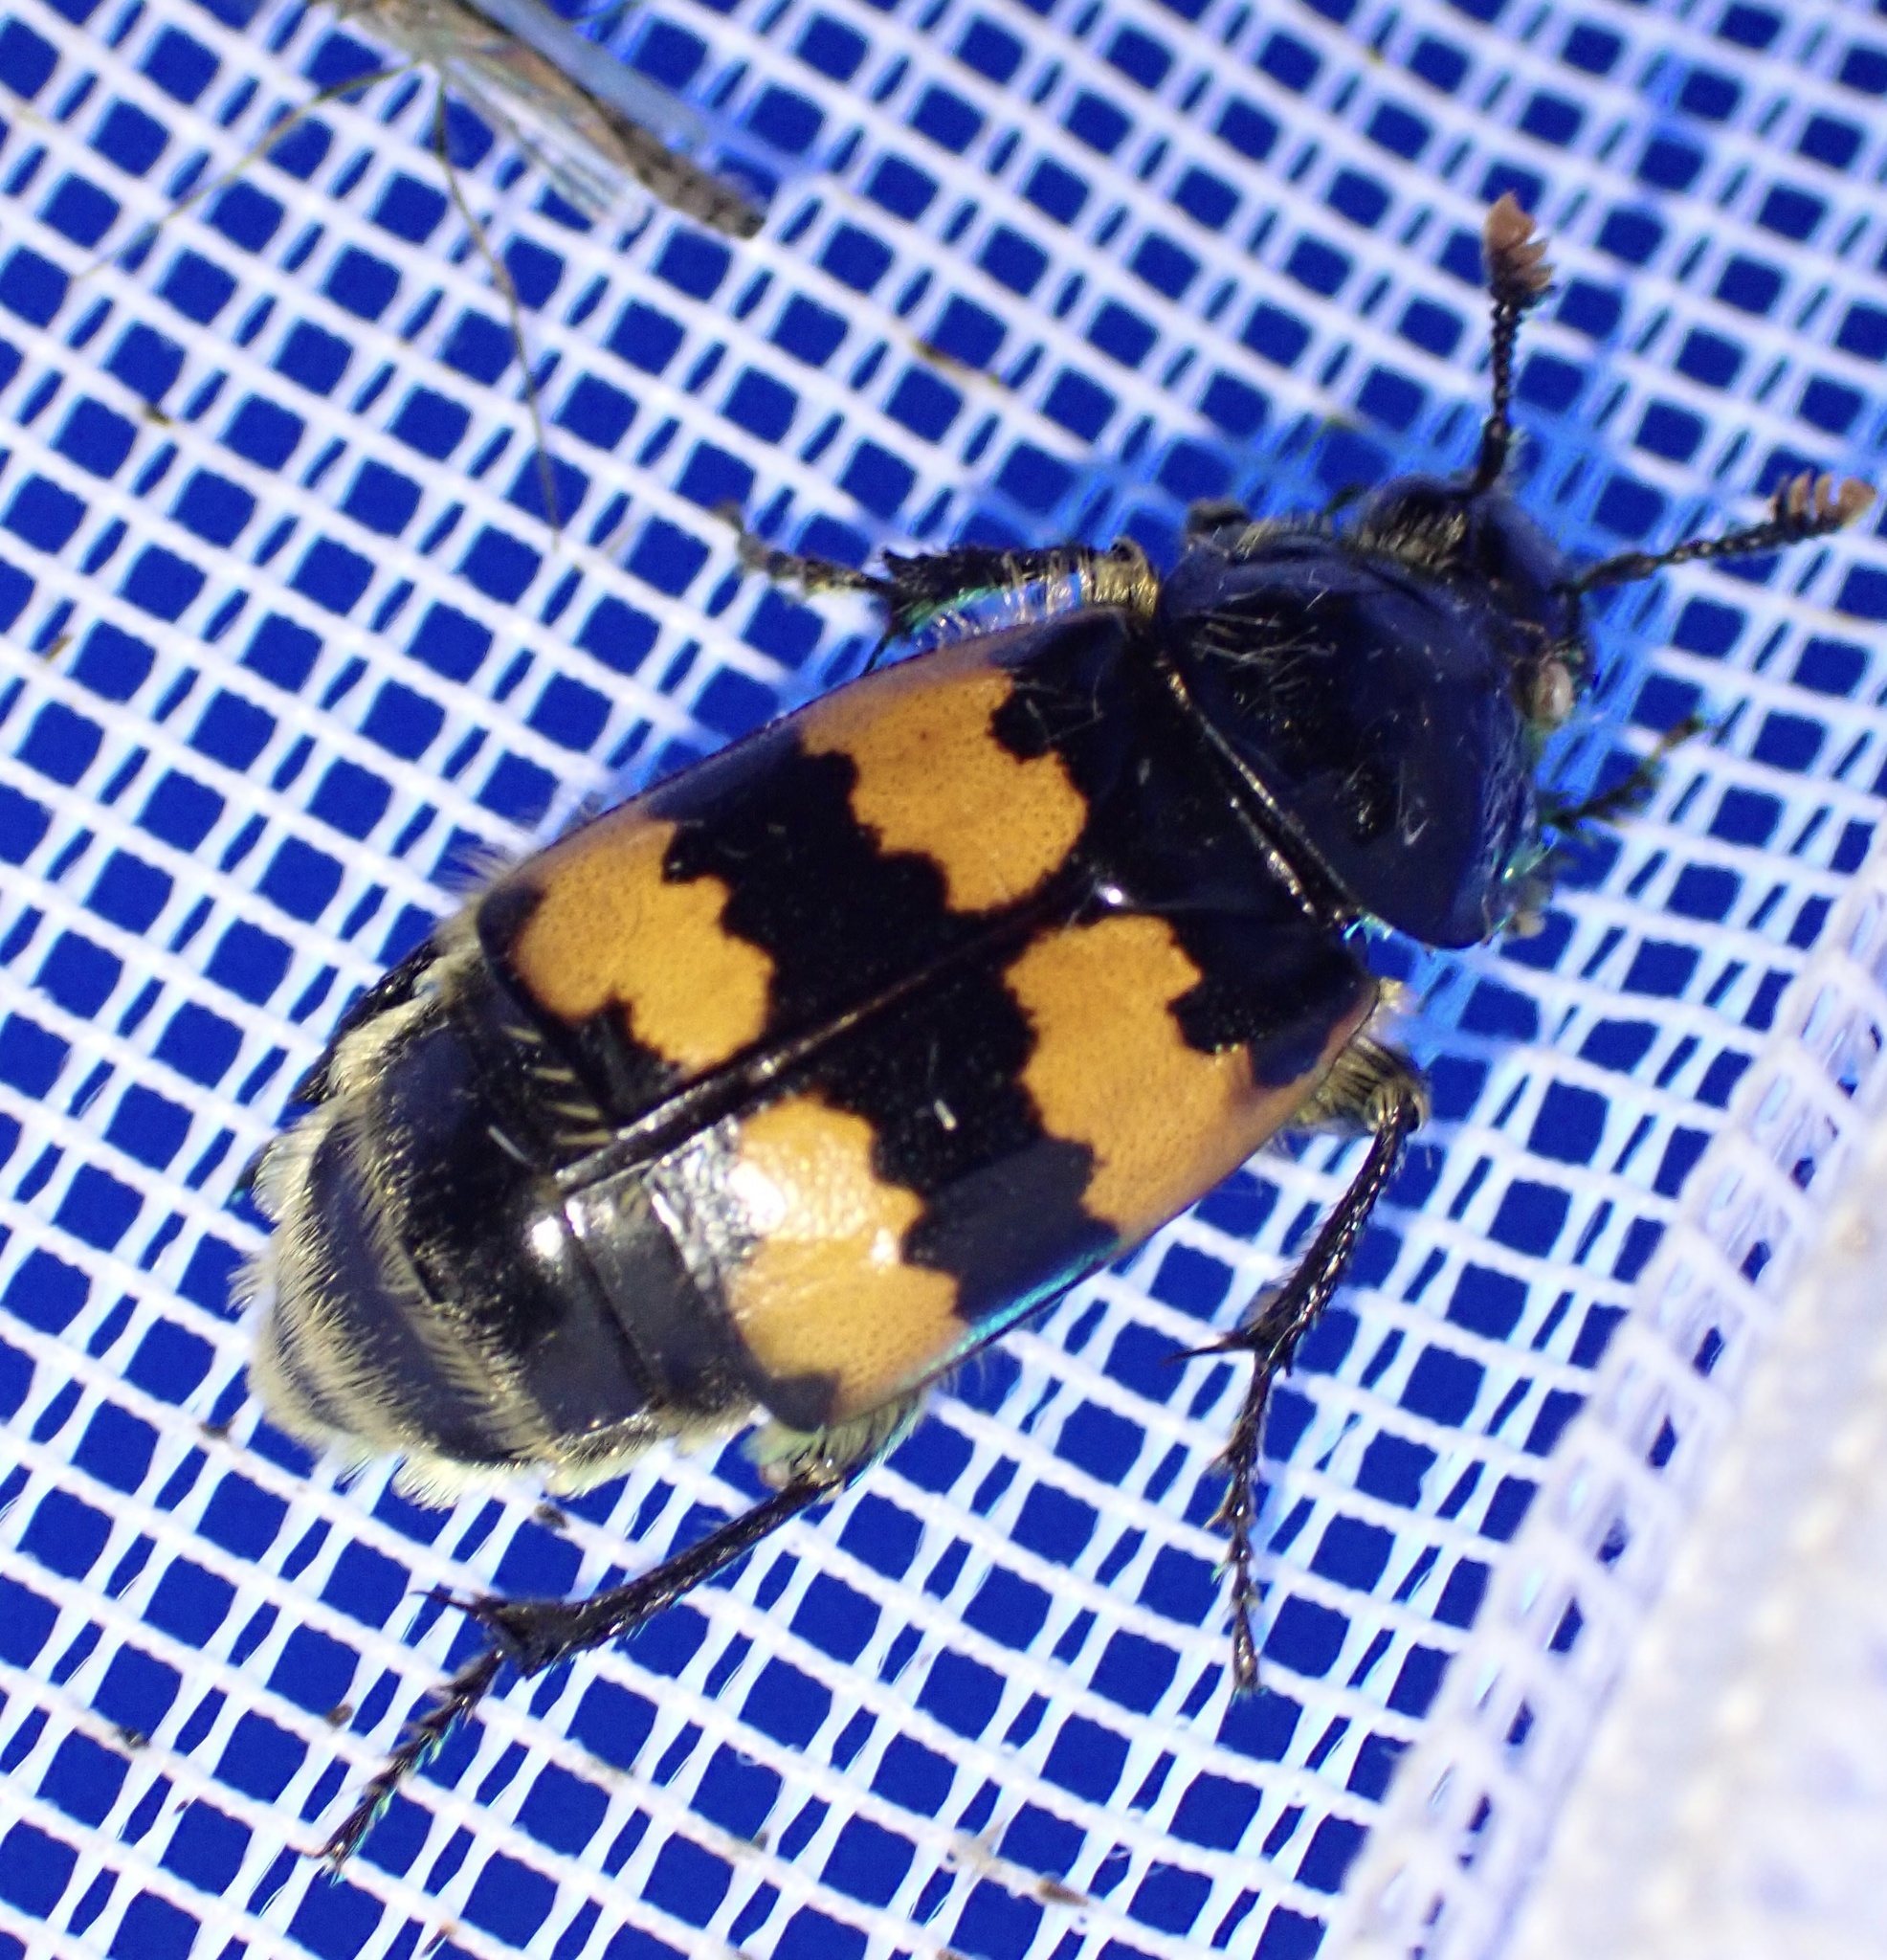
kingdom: Animalia
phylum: Arthropoda
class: Insecta
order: Coleoptera
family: Staphylinidae
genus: Nicrophorus
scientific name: Nicrophorus vespillo
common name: Common burying beetle
